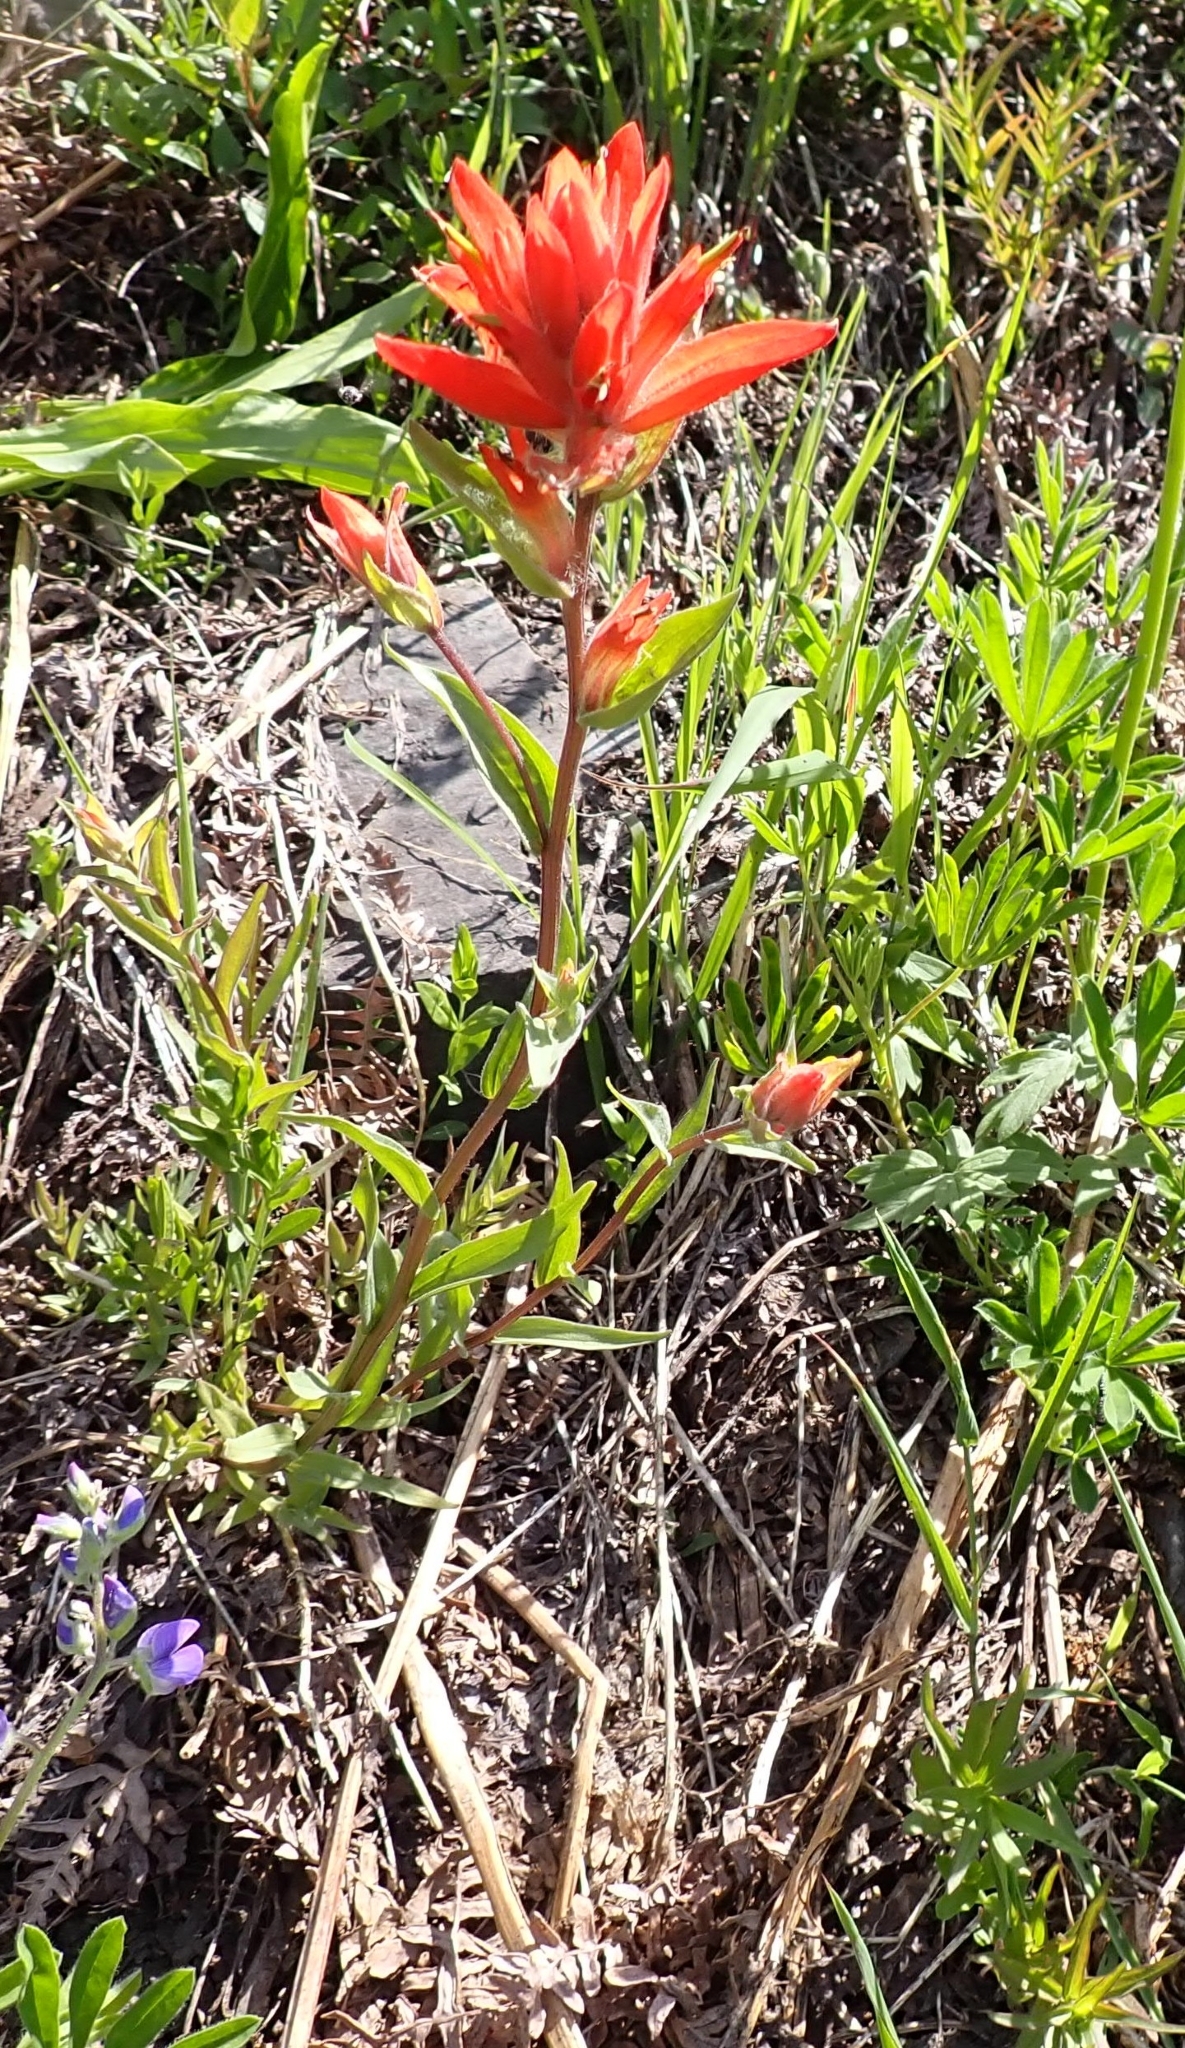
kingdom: Plantae
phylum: Tracheophyta
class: Magnoliopsida
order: Lamiales
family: Orobanchaceae
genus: Castilleja
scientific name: Castilleja miniata
